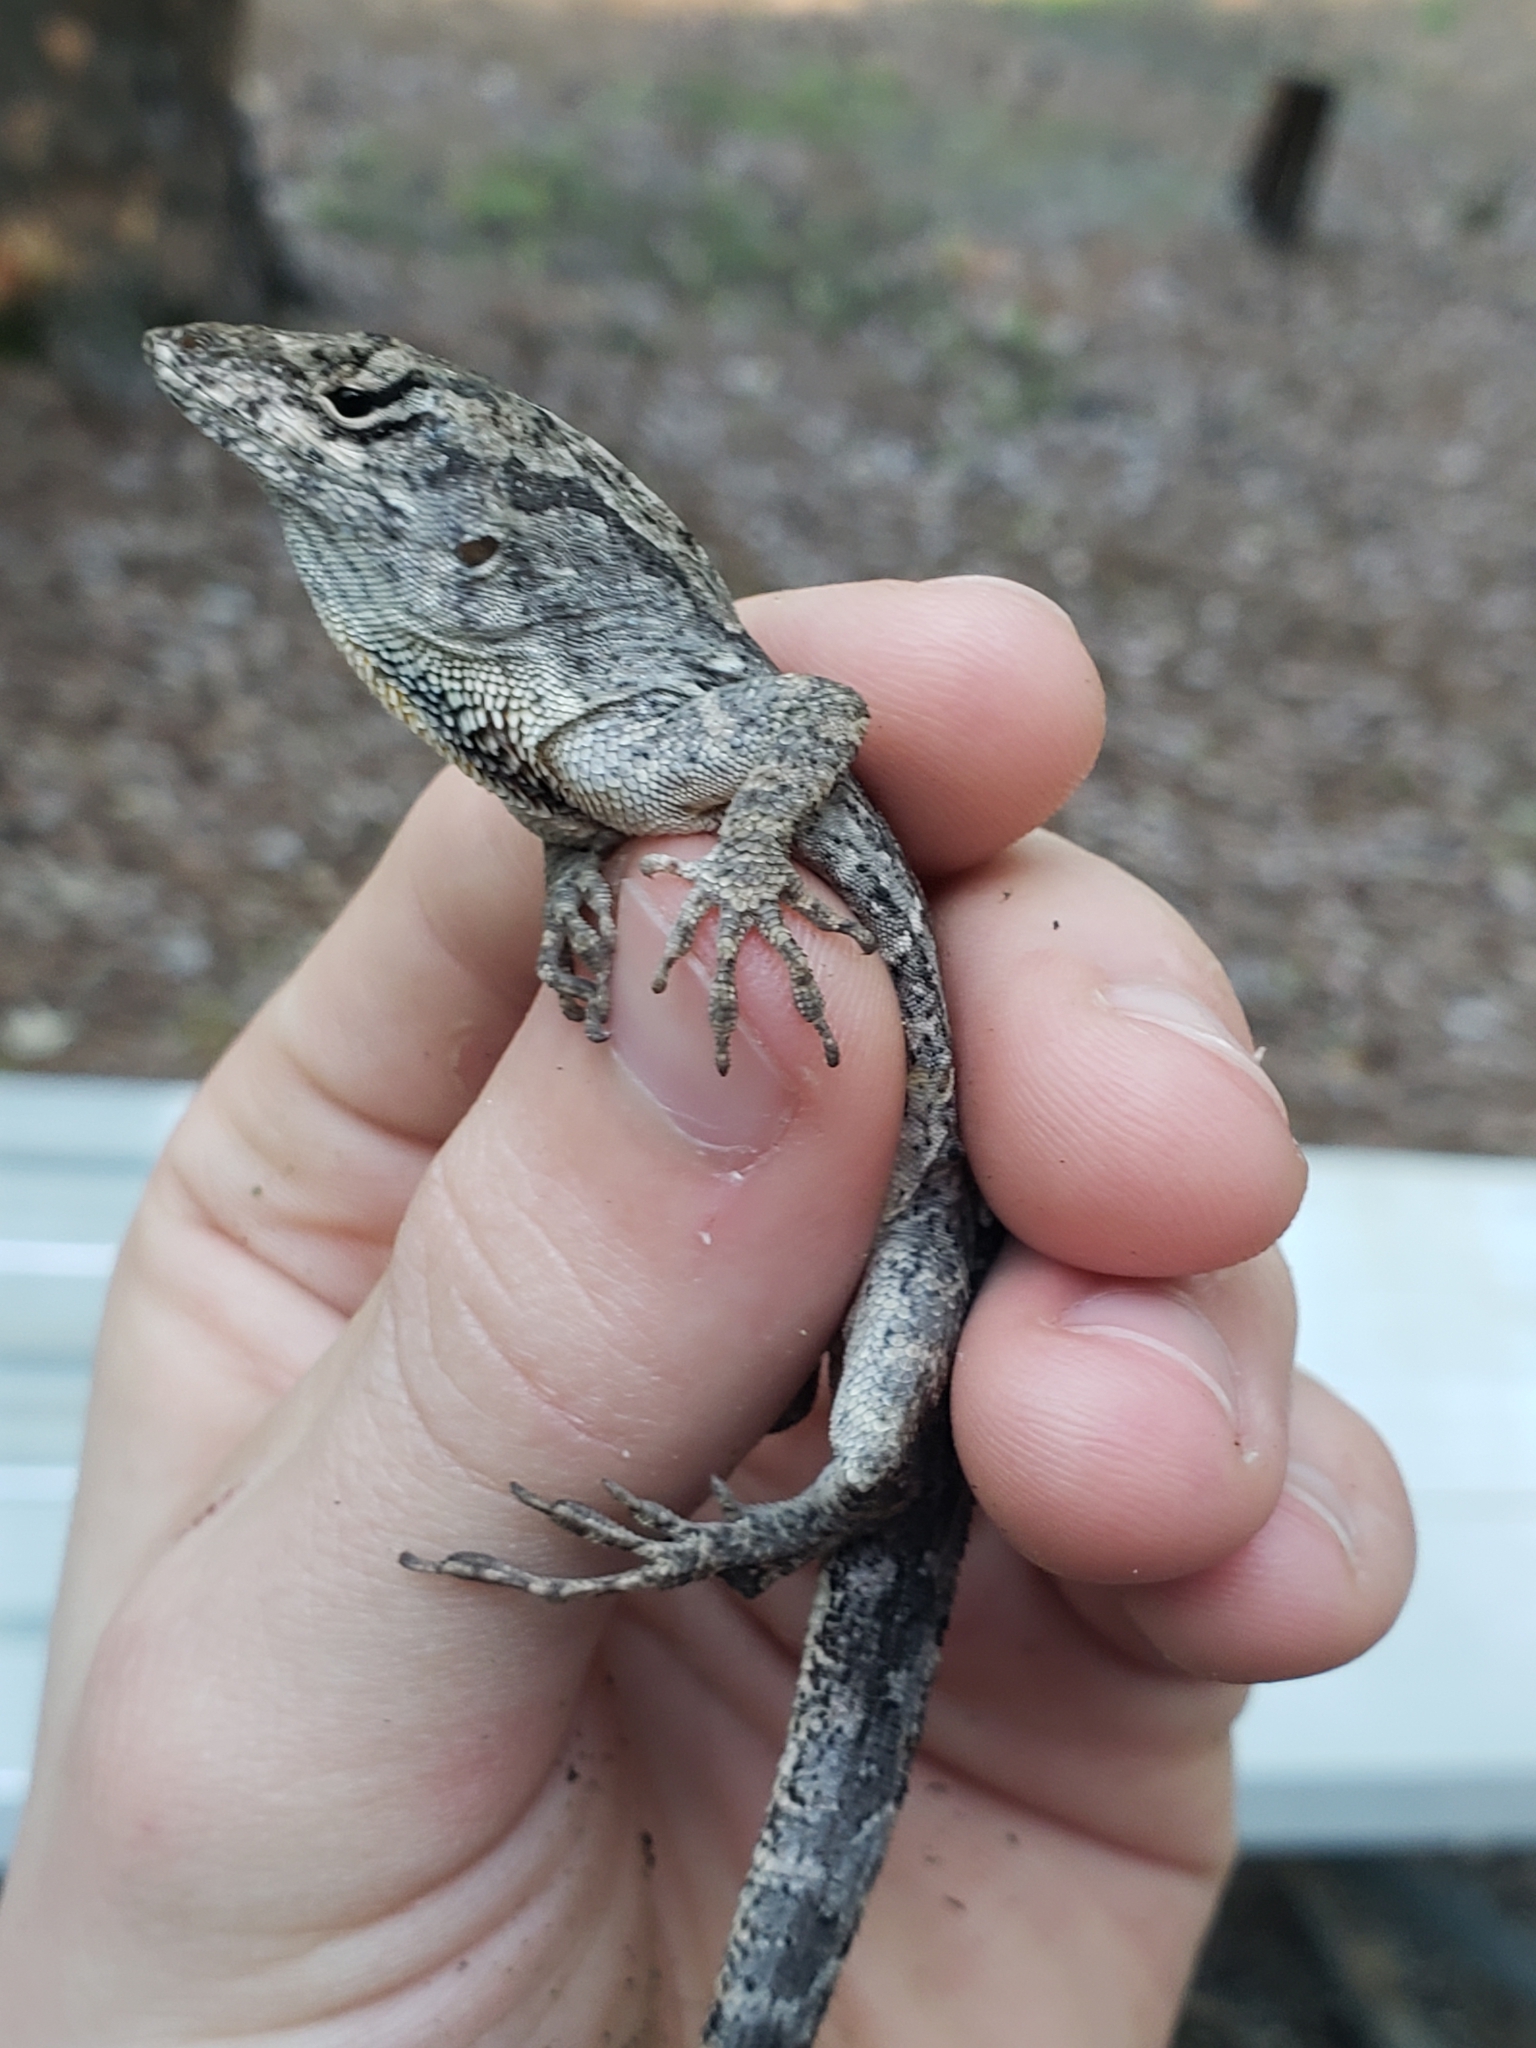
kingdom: Animalia
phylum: Chordata
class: Squamata
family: Dactyloidae
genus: Anolis
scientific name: Anolis sagrei
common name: Brown anole
